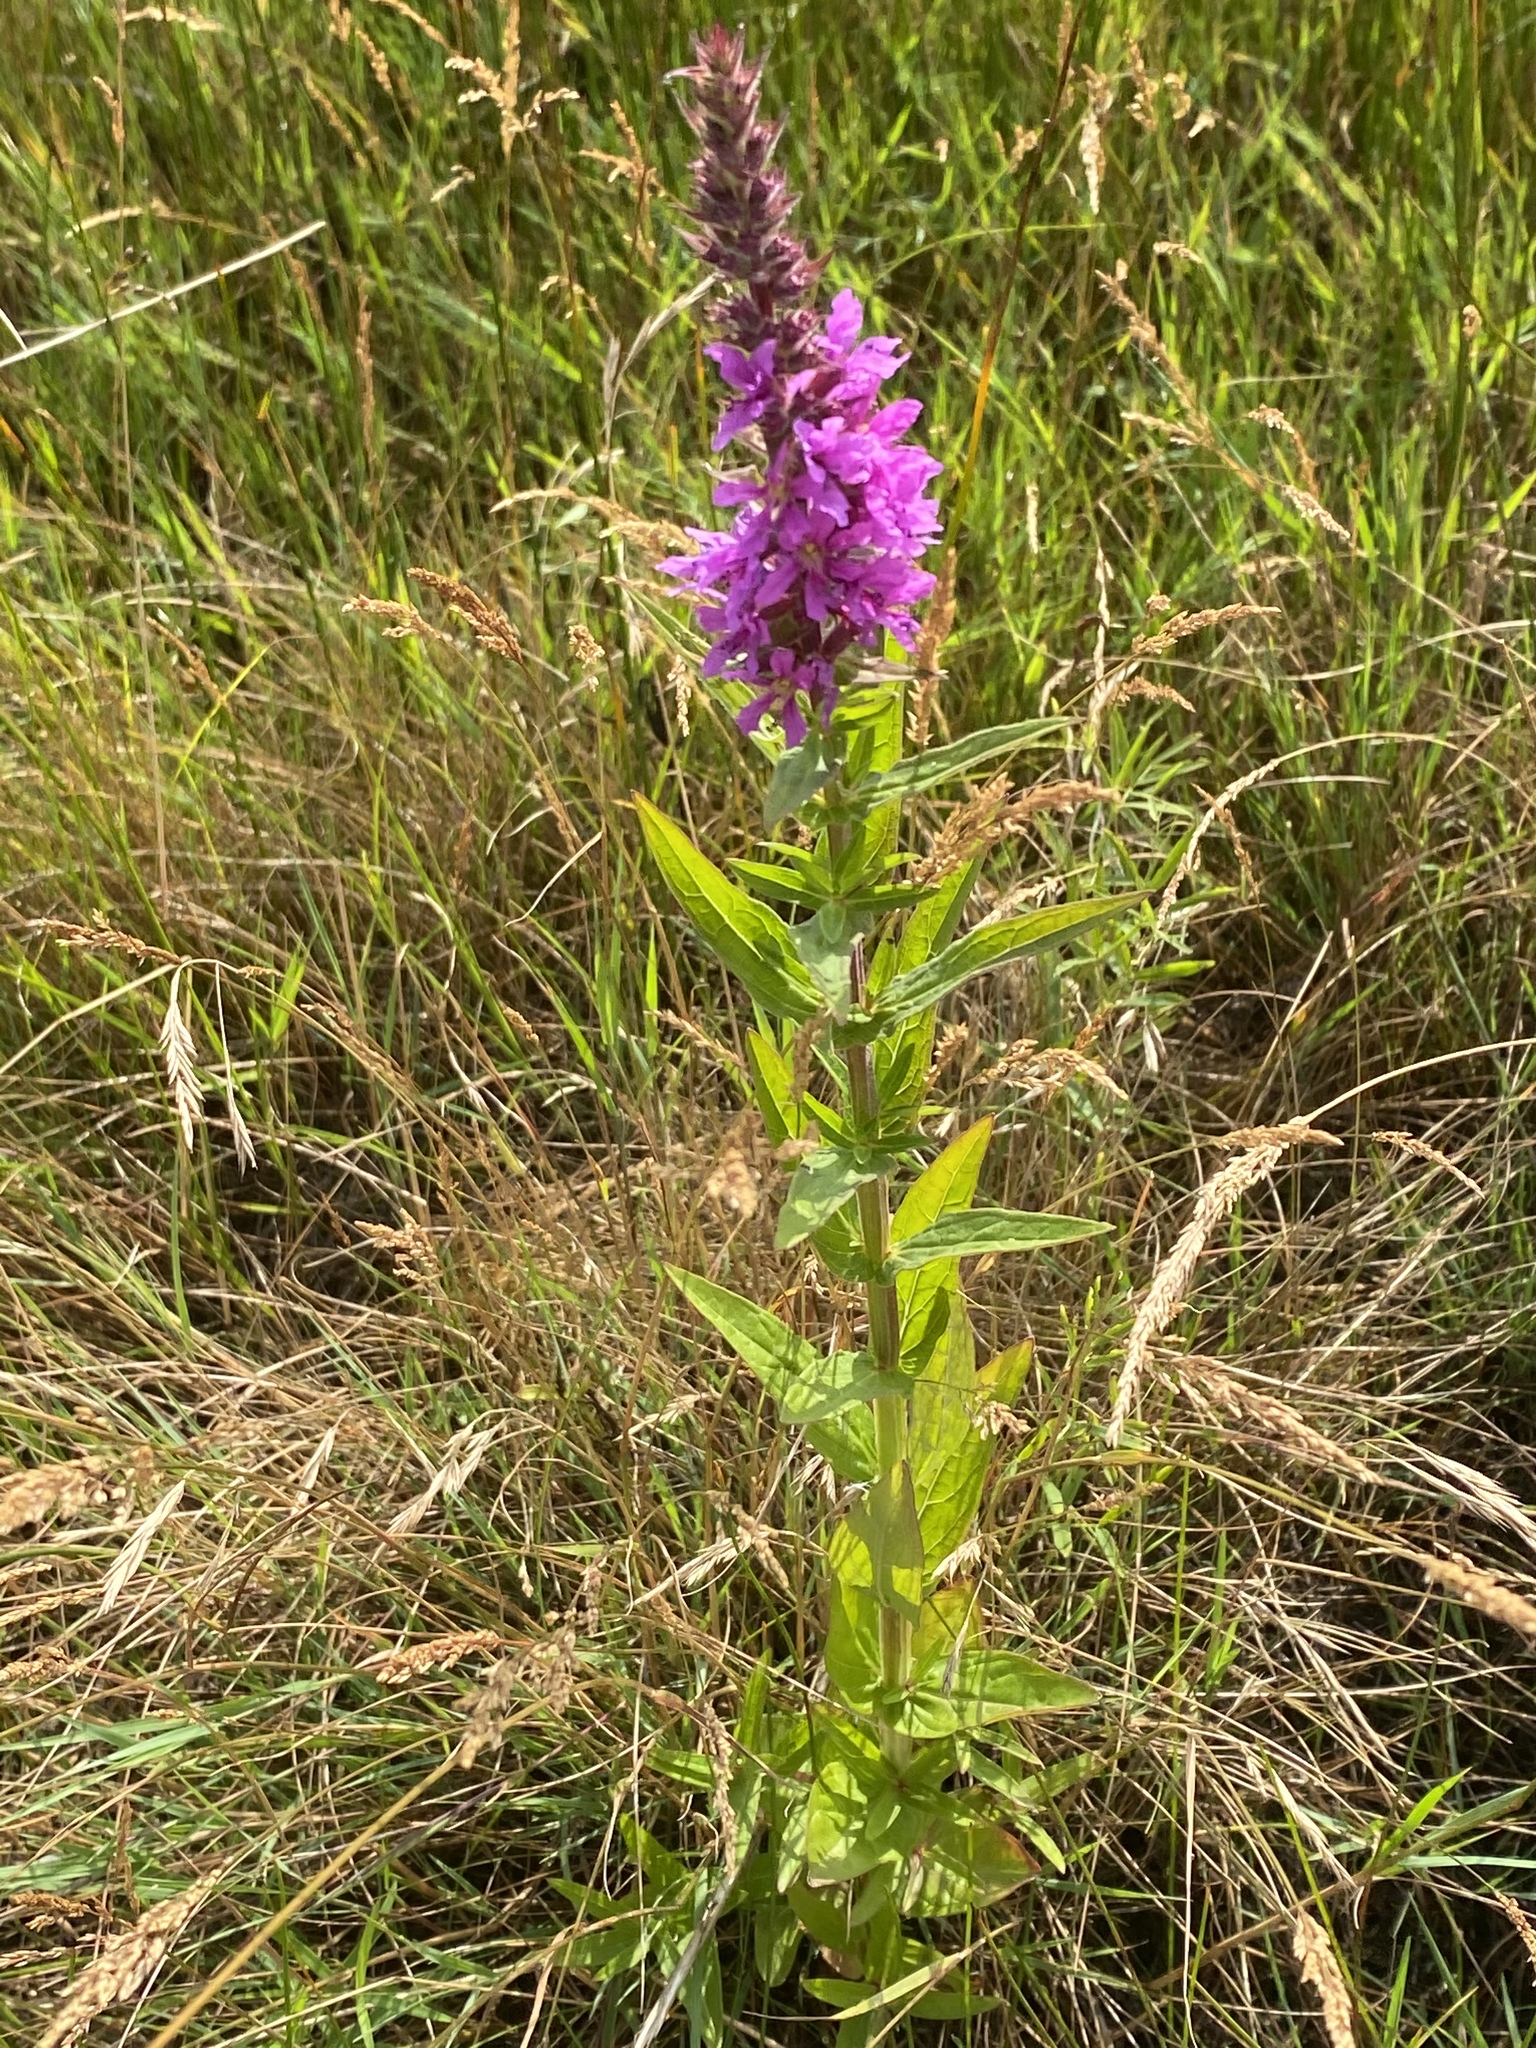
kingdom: Plantae
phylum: Tracheophyta
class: Magnoliopsida
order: Myrtales
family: Lythraceae
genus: Lythrum
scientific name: Lythrum salicaria
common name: Purple loosestrife
